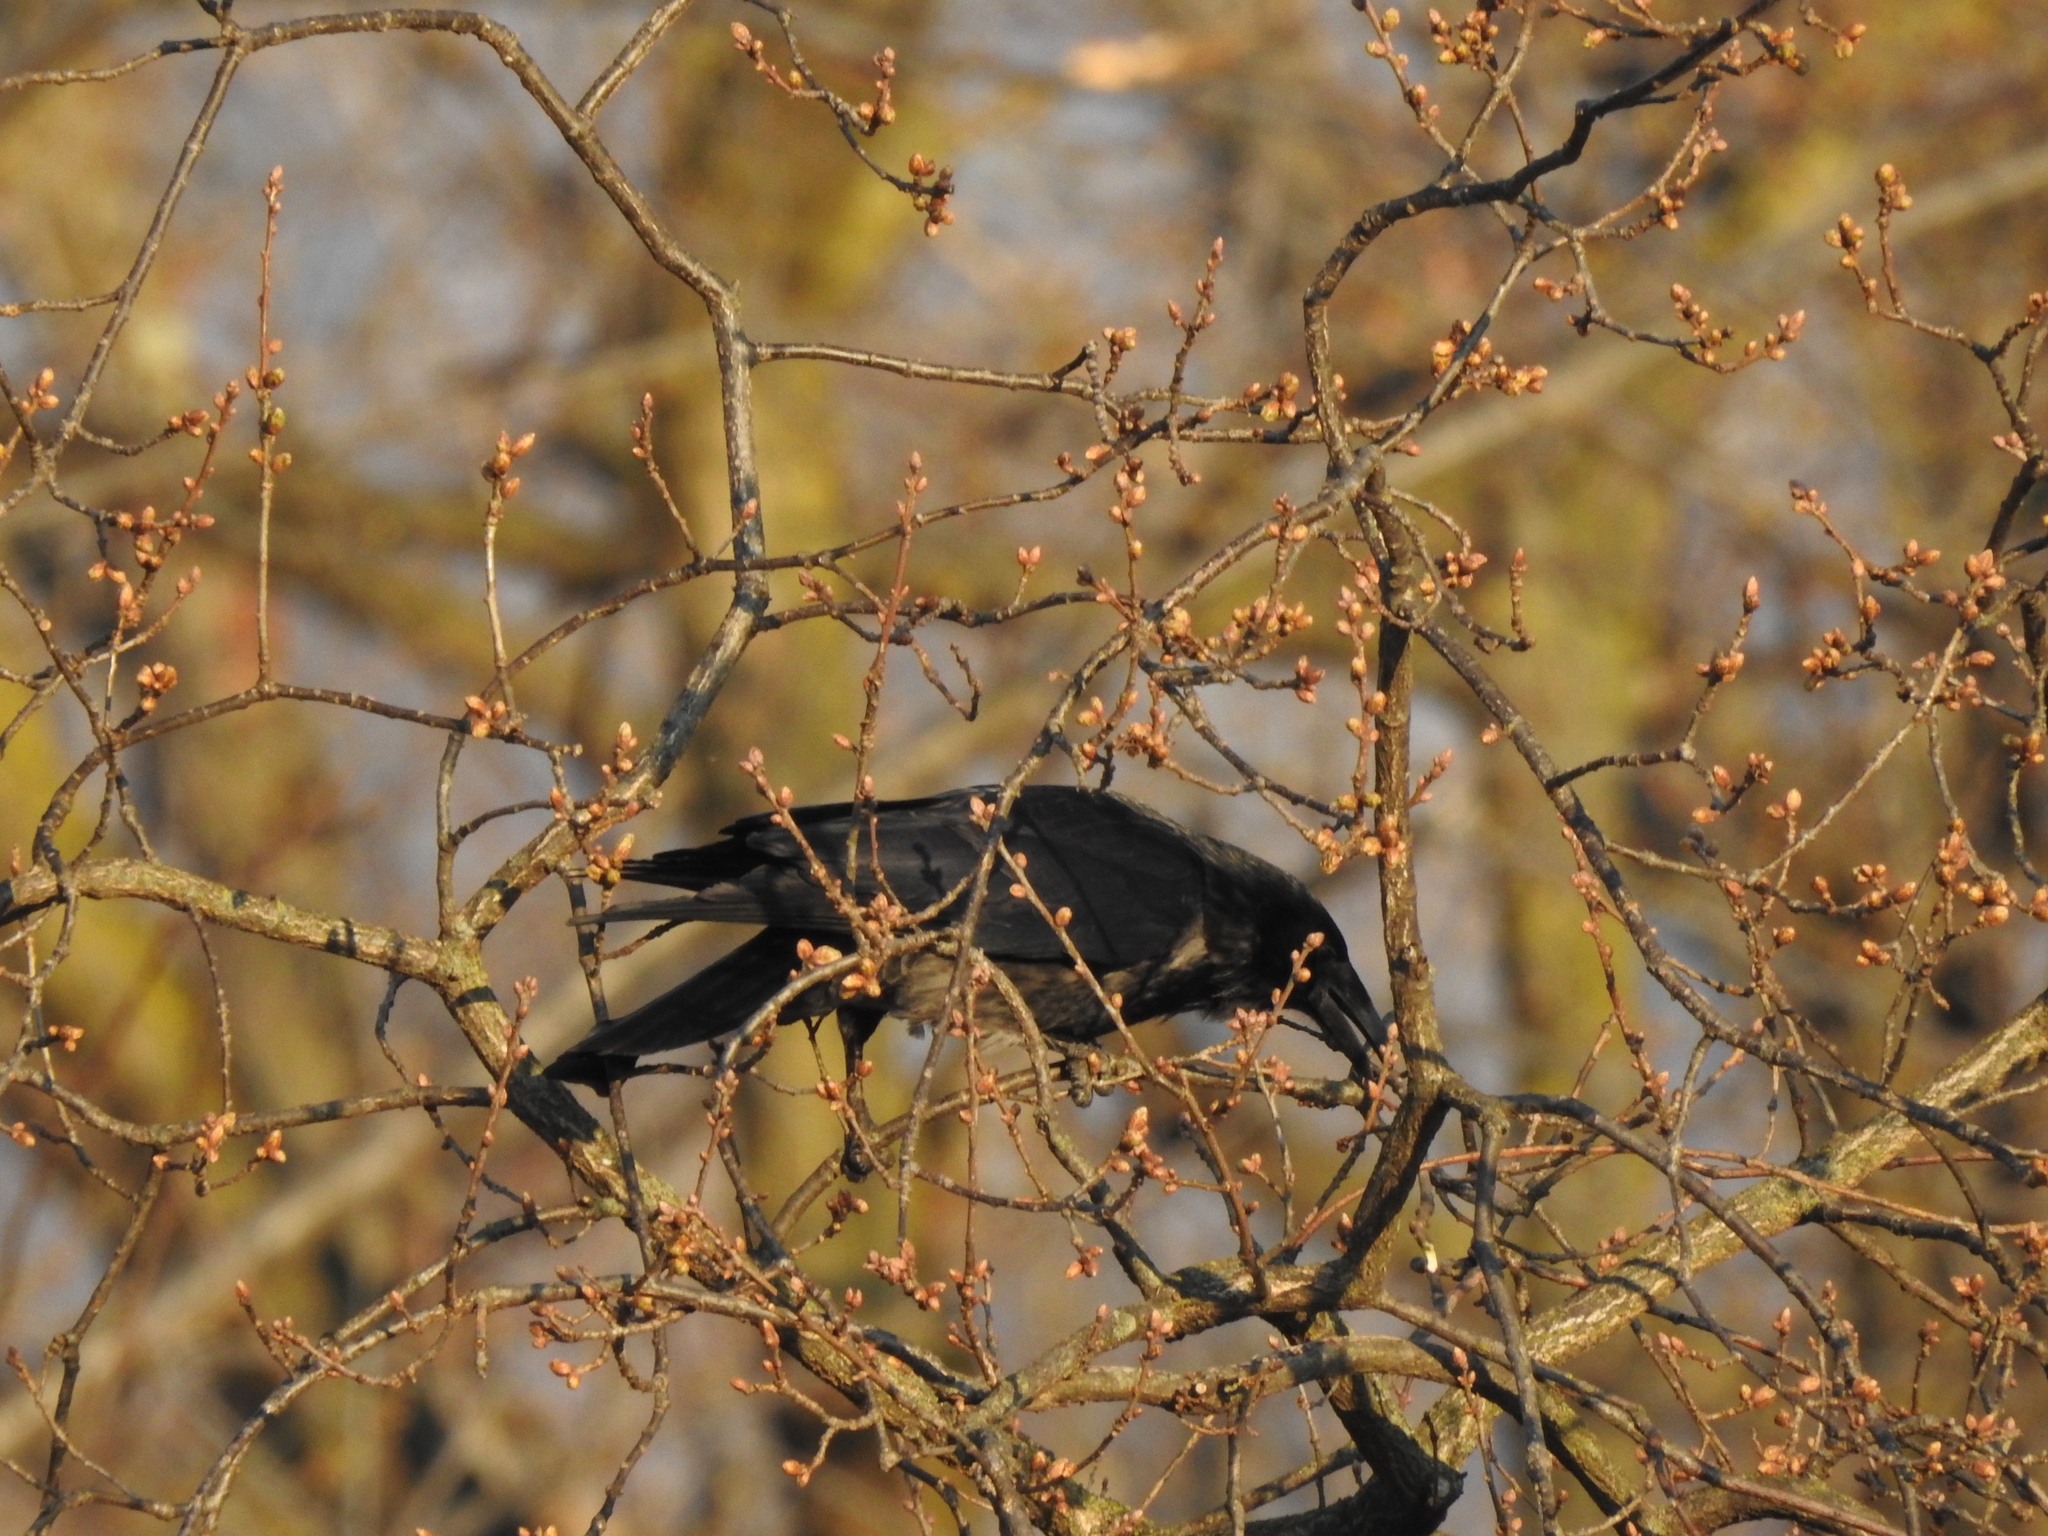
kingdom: Animalia
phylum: Chordata
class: Aves
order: Passeriformes
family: Corvidae
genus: Corvus
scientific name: Corvus
